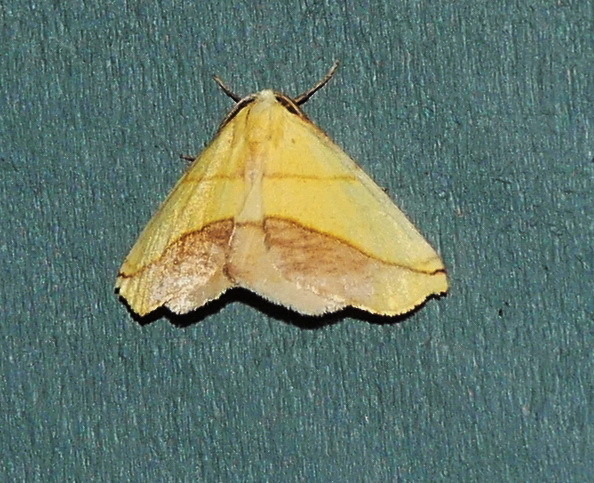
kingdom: Animalia
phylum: Arthropoda
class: Insecta
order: Lepidoptera
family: Geometridae
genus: Sicya
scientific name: Sicya macularia
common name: Sharp-lined yellow
